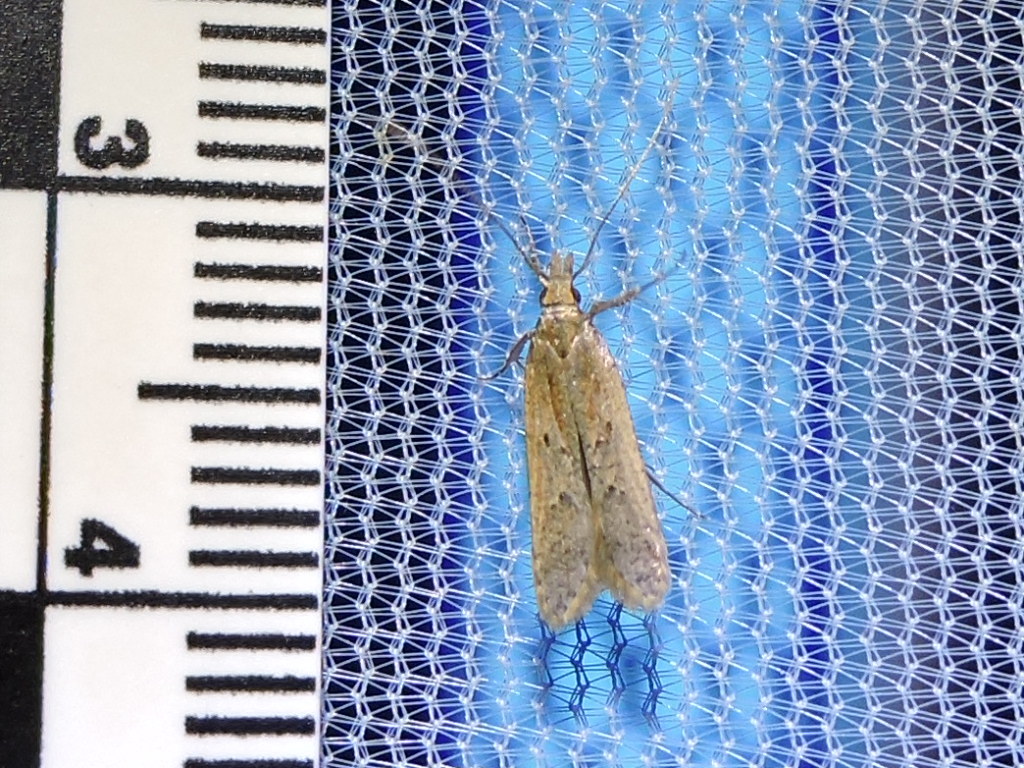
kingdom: Animalia
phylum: Arthropoda
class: Insecta
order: Lepidoptera
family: Gelechiidae
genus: Mesophleps
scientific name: Mesophleps adustipennis
